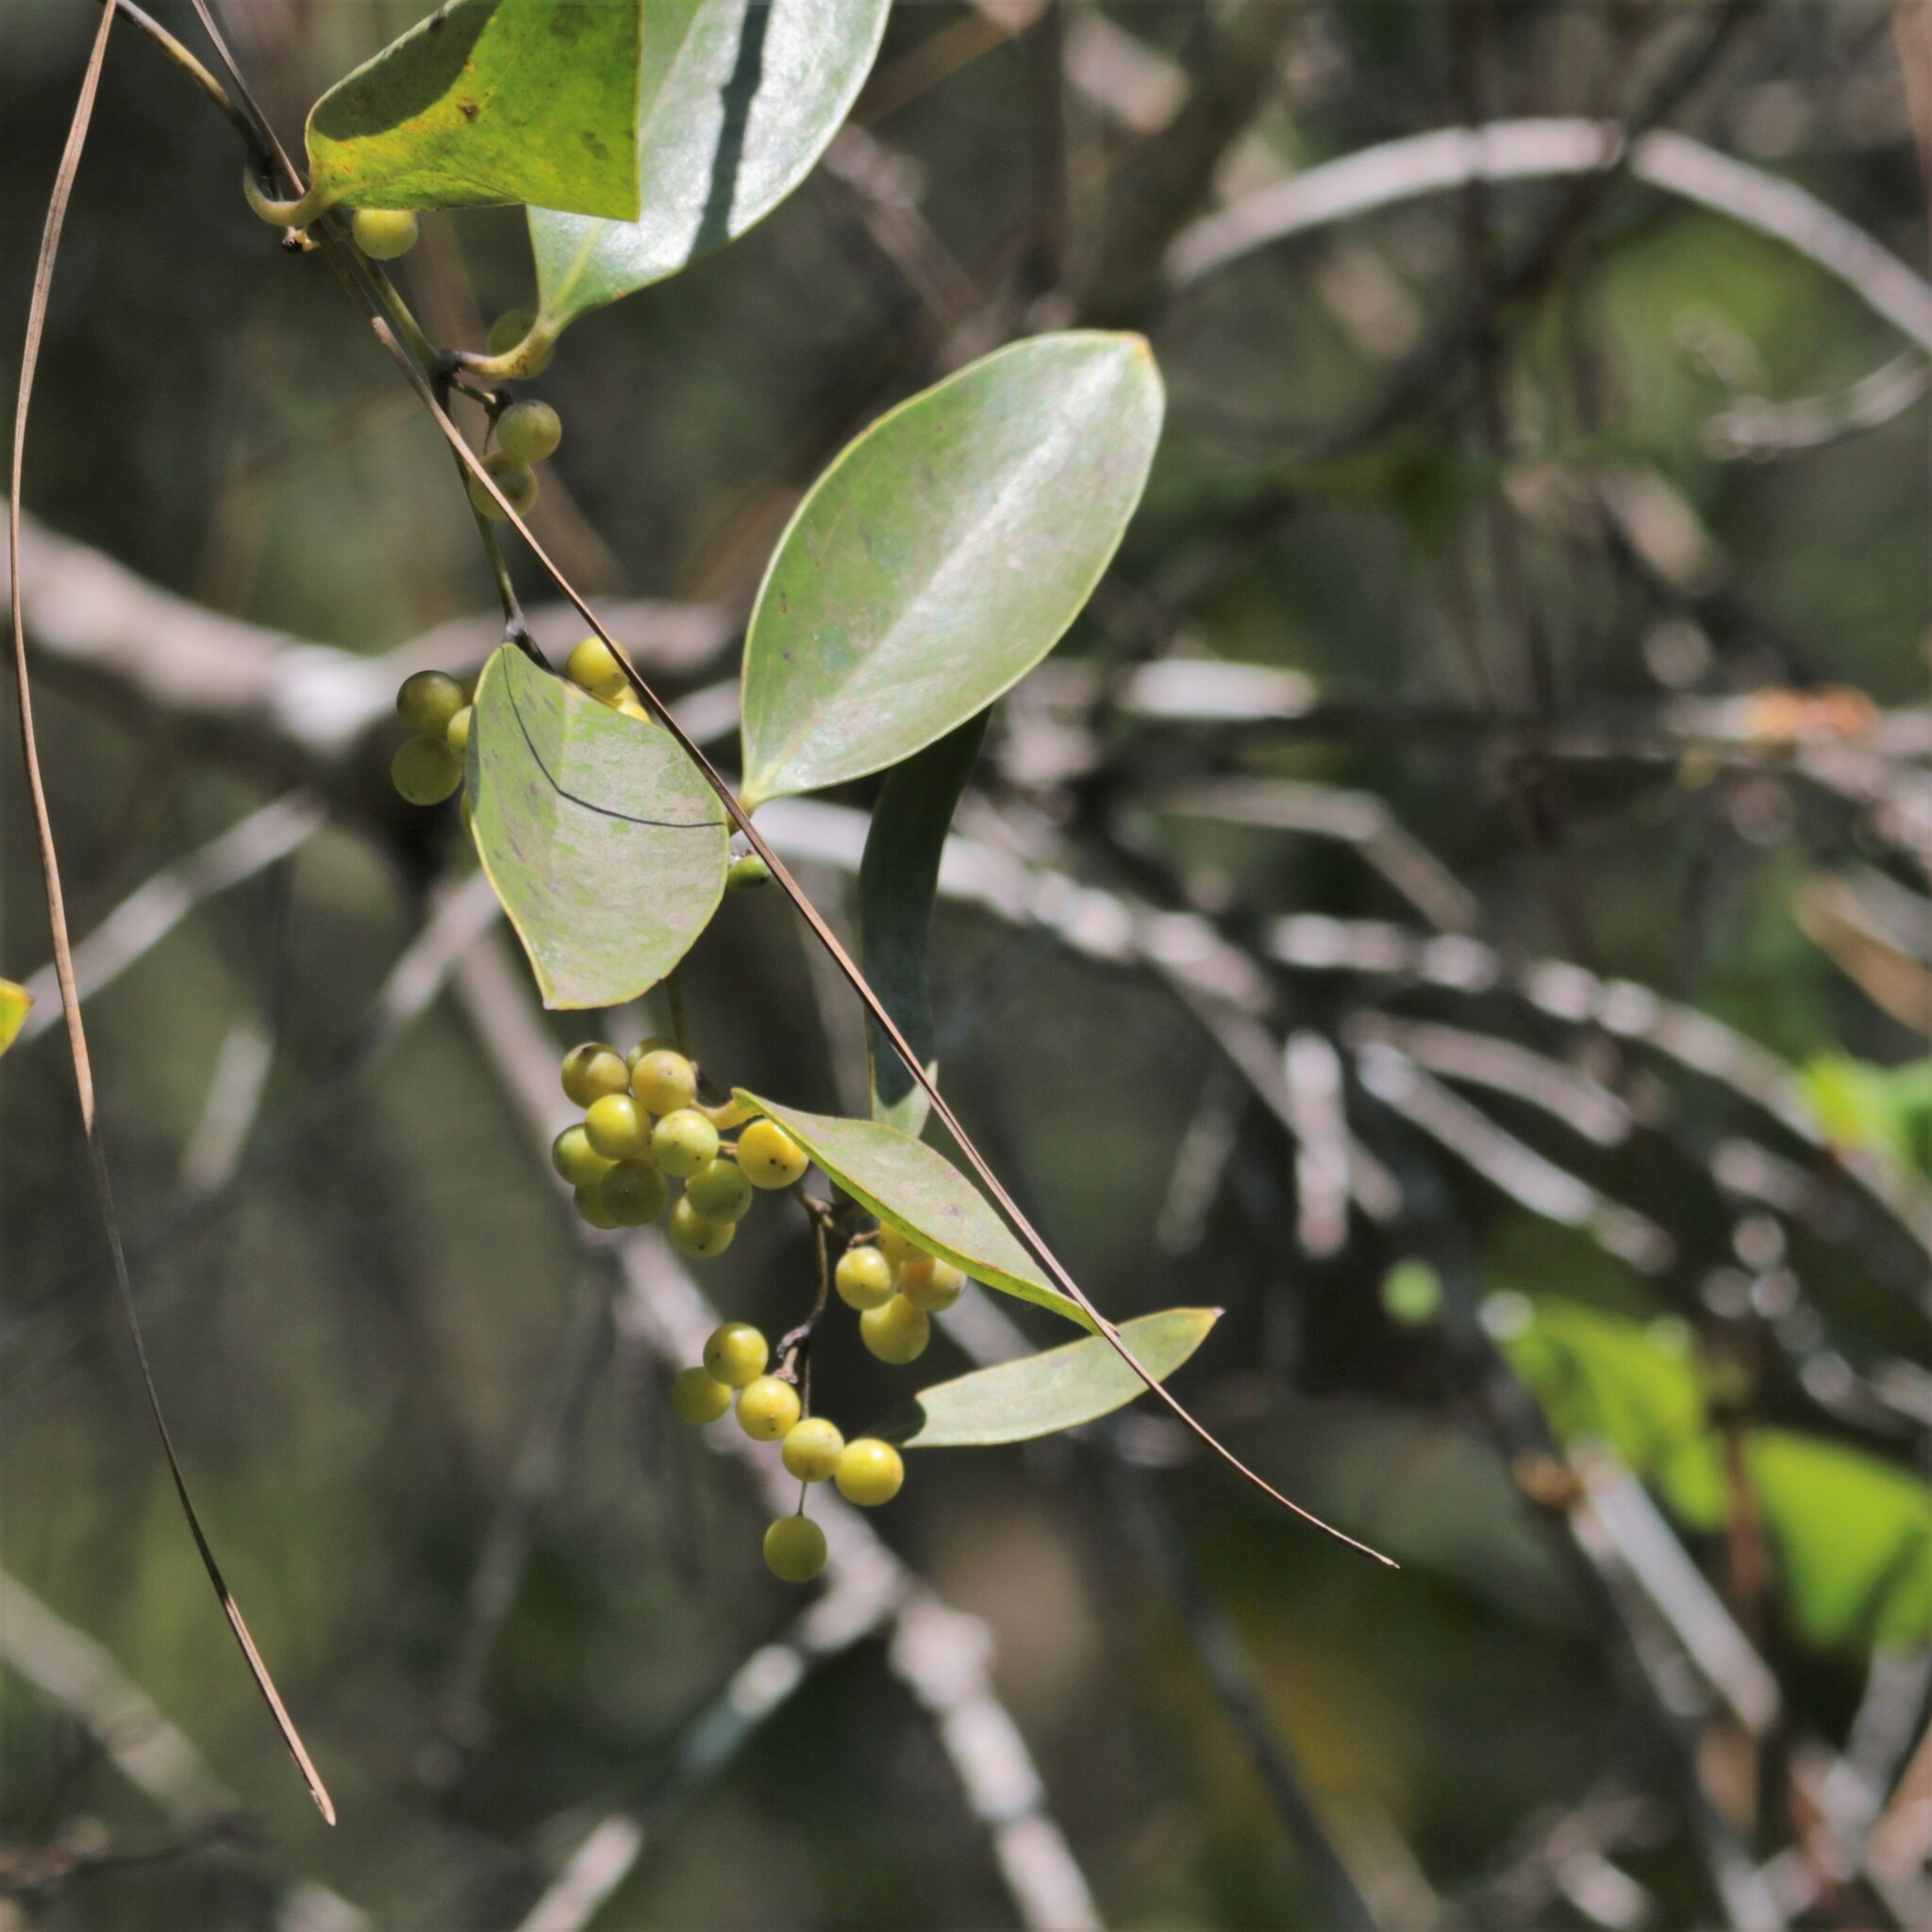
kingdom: Plantae
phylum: Tracheophyta
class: Liliopsida
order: Liliales
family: Smilacaceae
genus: Smilax
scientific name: Smilax laurifolia
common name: Bamboovine
